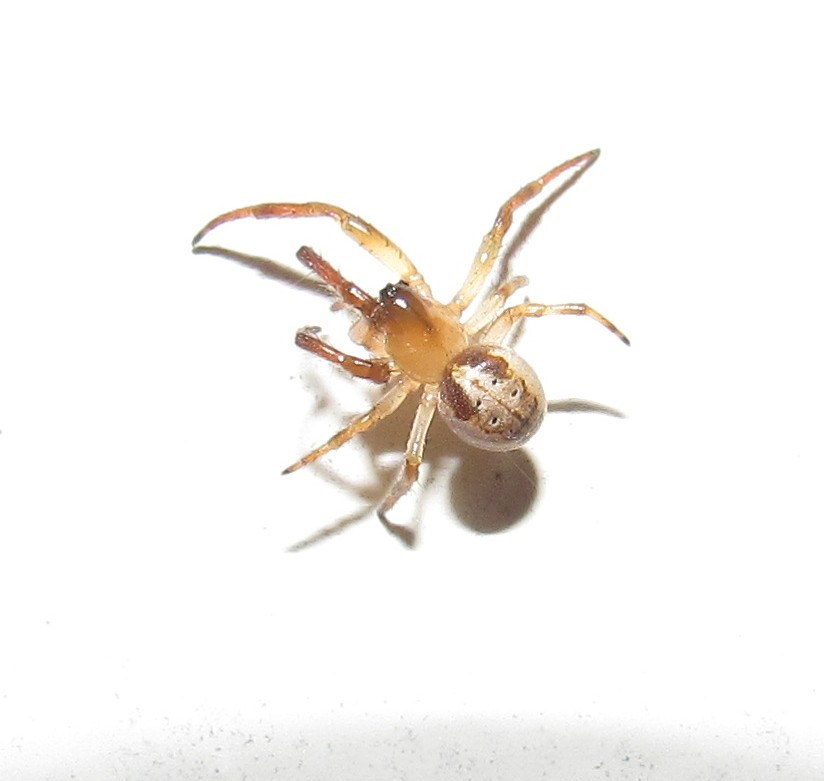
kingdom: Animalia
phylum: Arthropoda
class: Arachnida
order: Araneae
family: Araneidae
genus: Metazygia
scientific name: Metazygia gregalis
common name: Orb weavers
